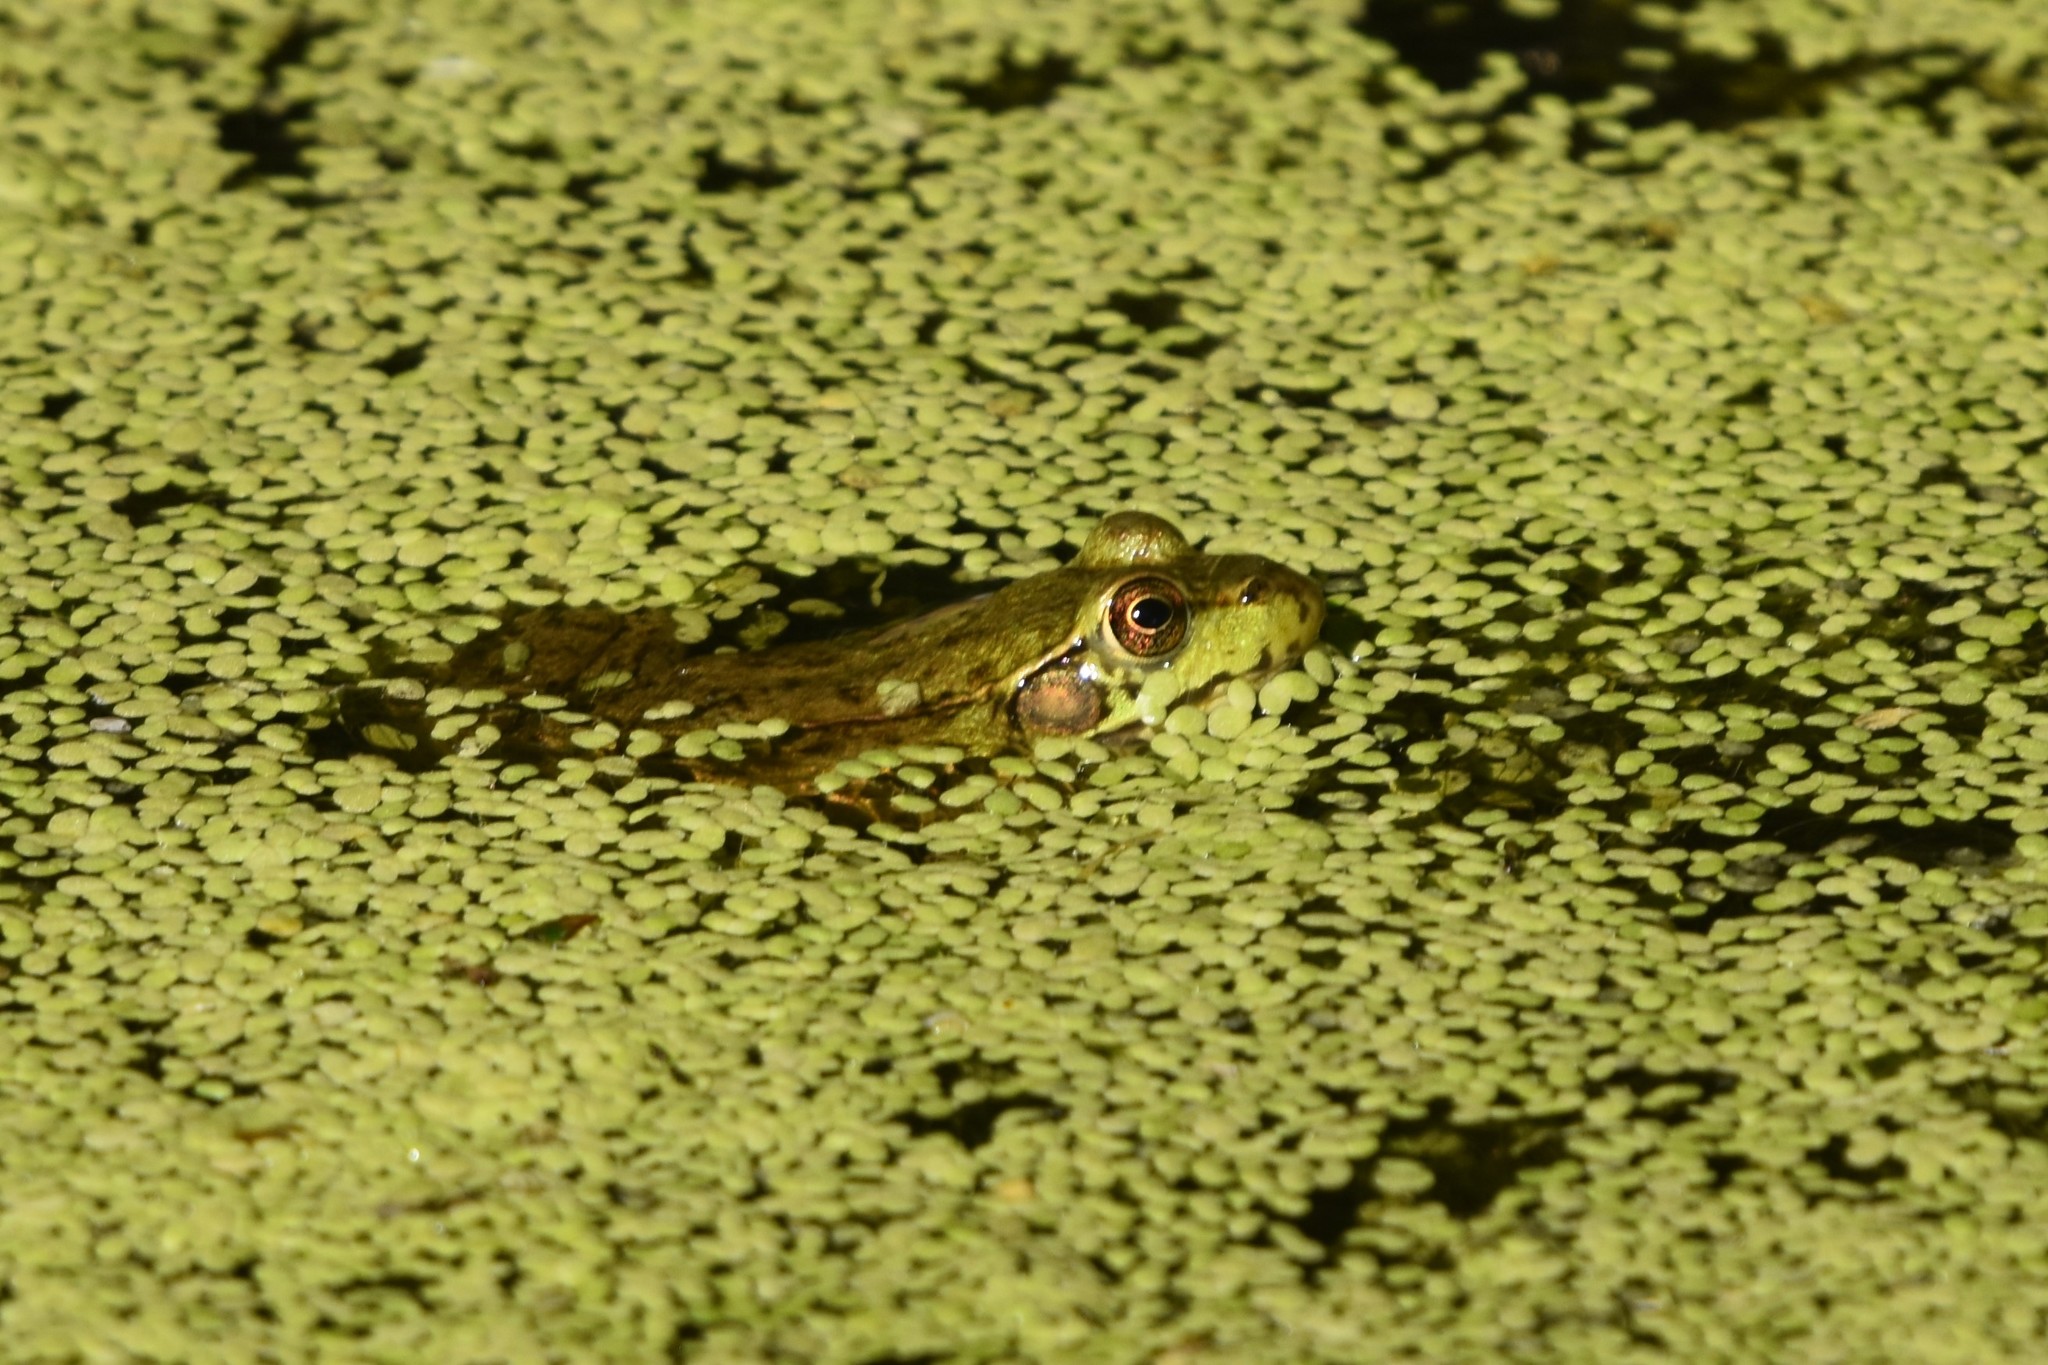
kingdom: Animalia
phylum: Chordata
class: Amphibia
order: Anura
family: Ranidae
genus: Lithobates
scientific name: Lithobates clamitans
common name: Green frog
